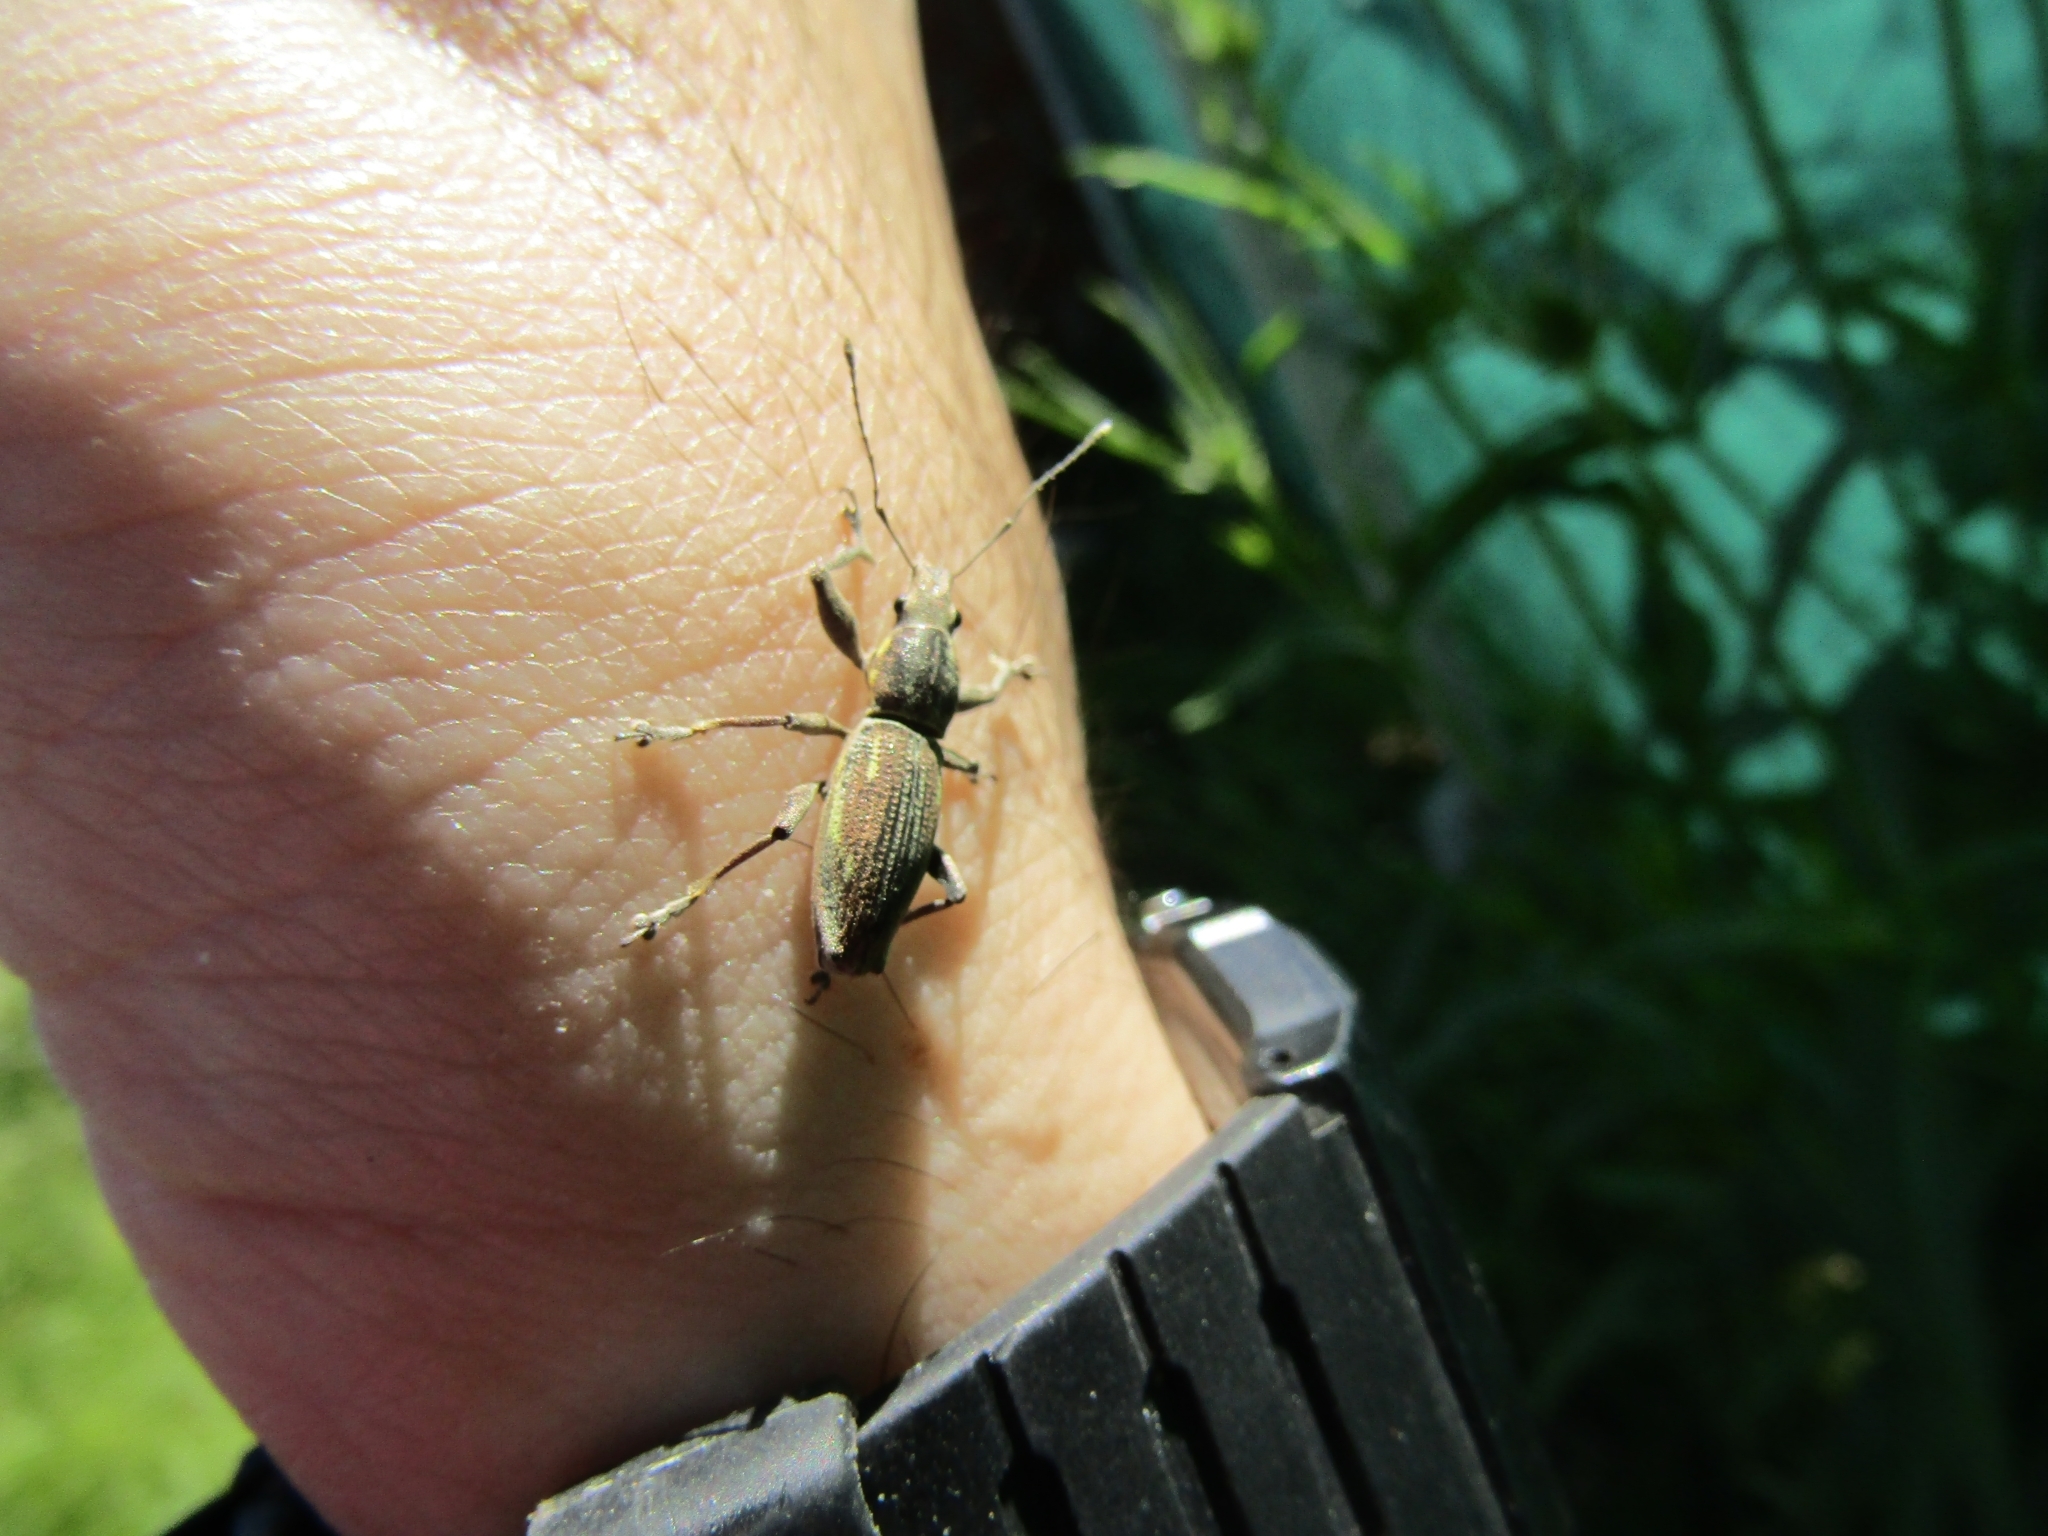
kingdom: Animalia
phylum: Arthropoda
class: Insecta
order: Coleoptera
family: Curculionidae
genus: Naupactus
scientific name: Naupactus xanthographus
